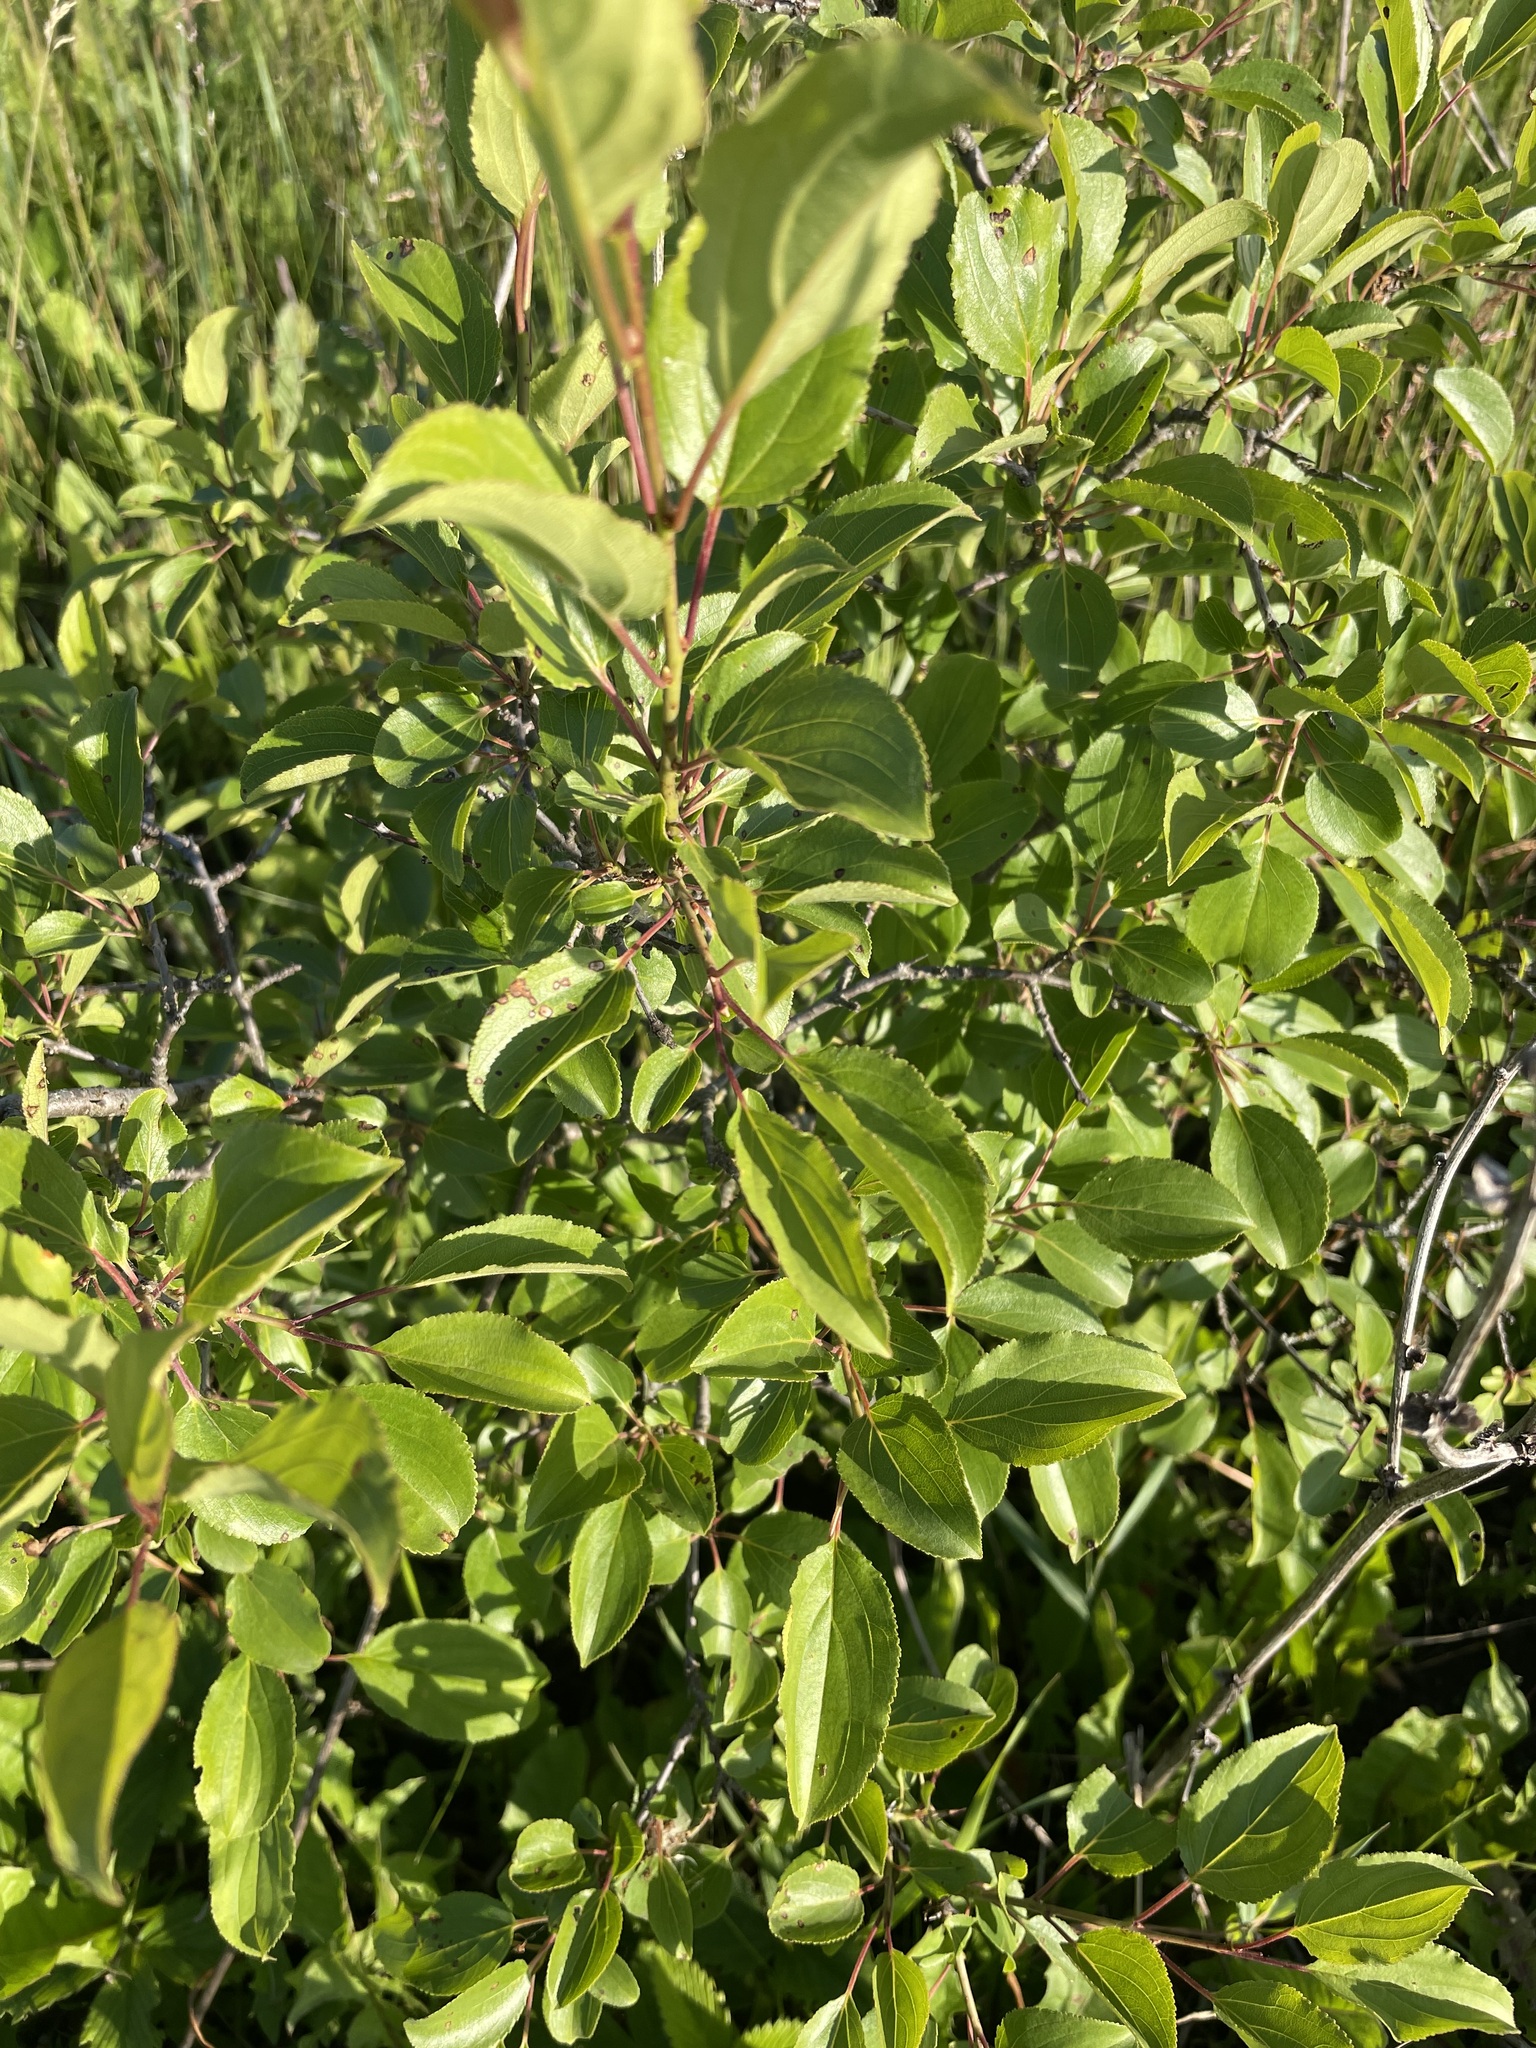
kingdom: Plantae
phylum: Tracheophyta
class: Magnoliopsida
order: Rosales
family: Rhamnaceae
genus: Rhamnus
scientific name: Rhamnus cathartica
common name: Common buckthorn
